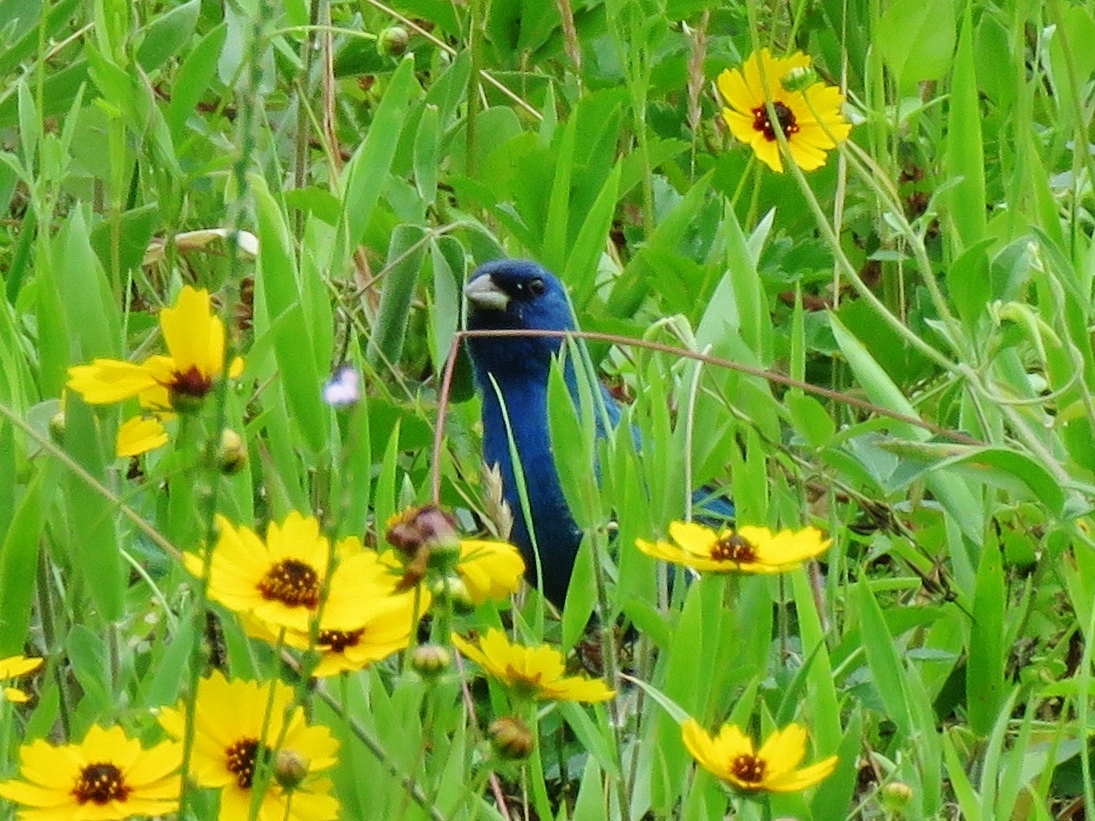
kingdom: Animalia
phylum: Chordata
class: Aves
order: Passeriformes
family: Cardinalidae
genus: Passerina
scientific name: Passerina cyanea
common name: Indigo bunting
